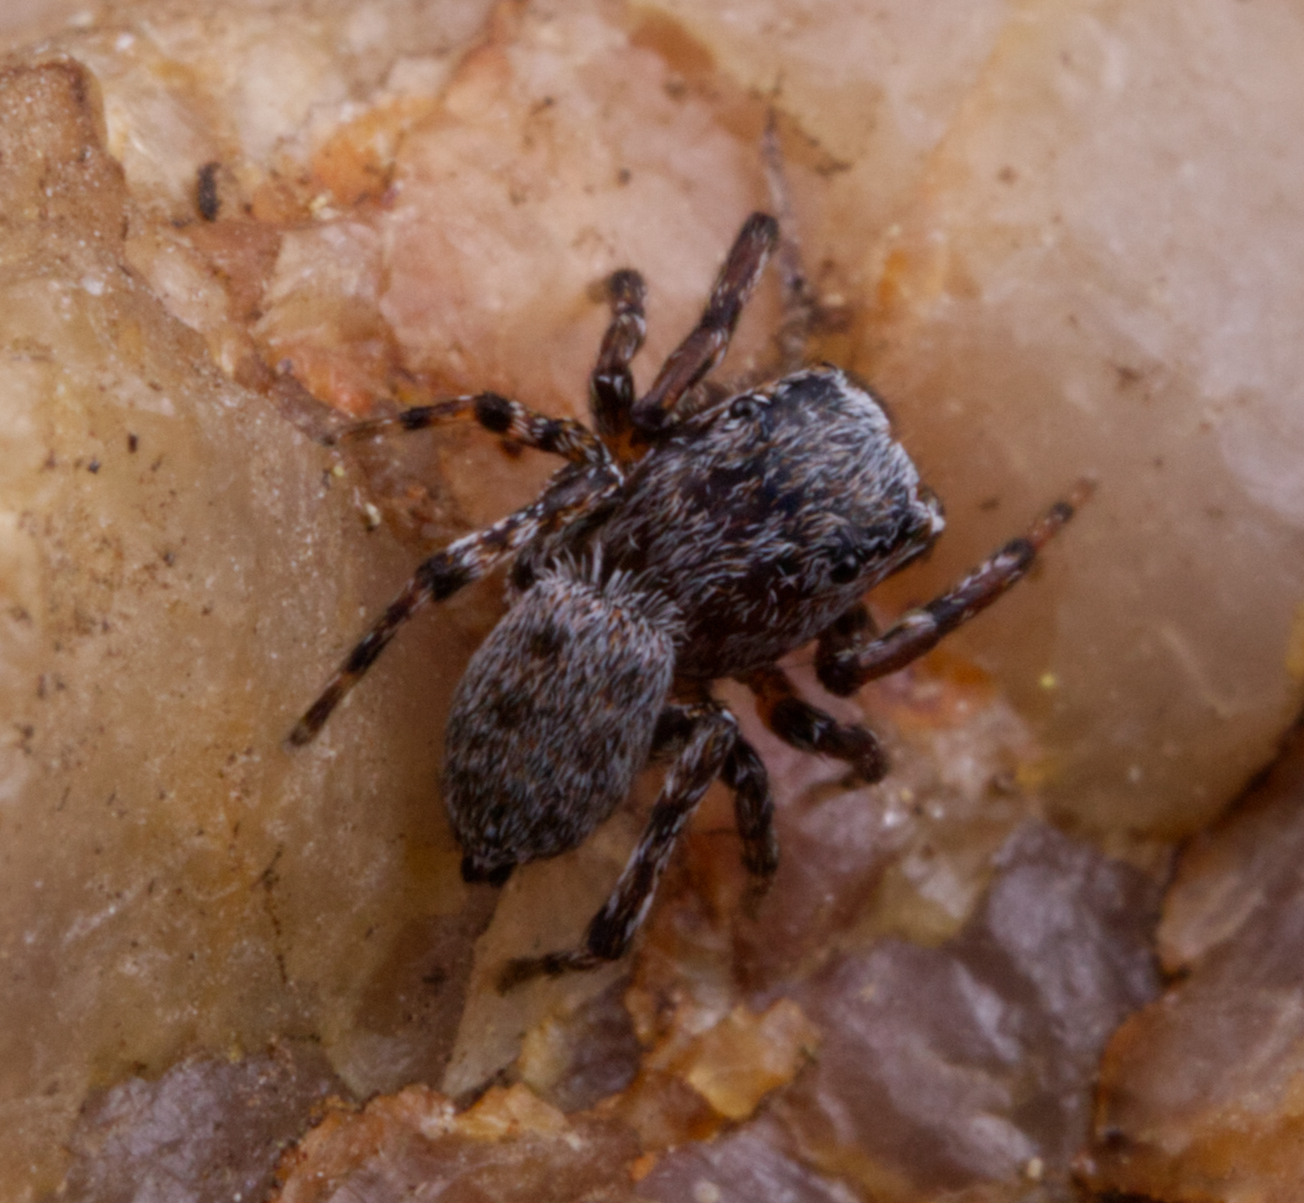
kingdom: Animalia
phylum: Arthropoda
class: Arachnida
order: Araneae
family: Salticidae
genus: Attinella
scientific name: Attinella concolor
